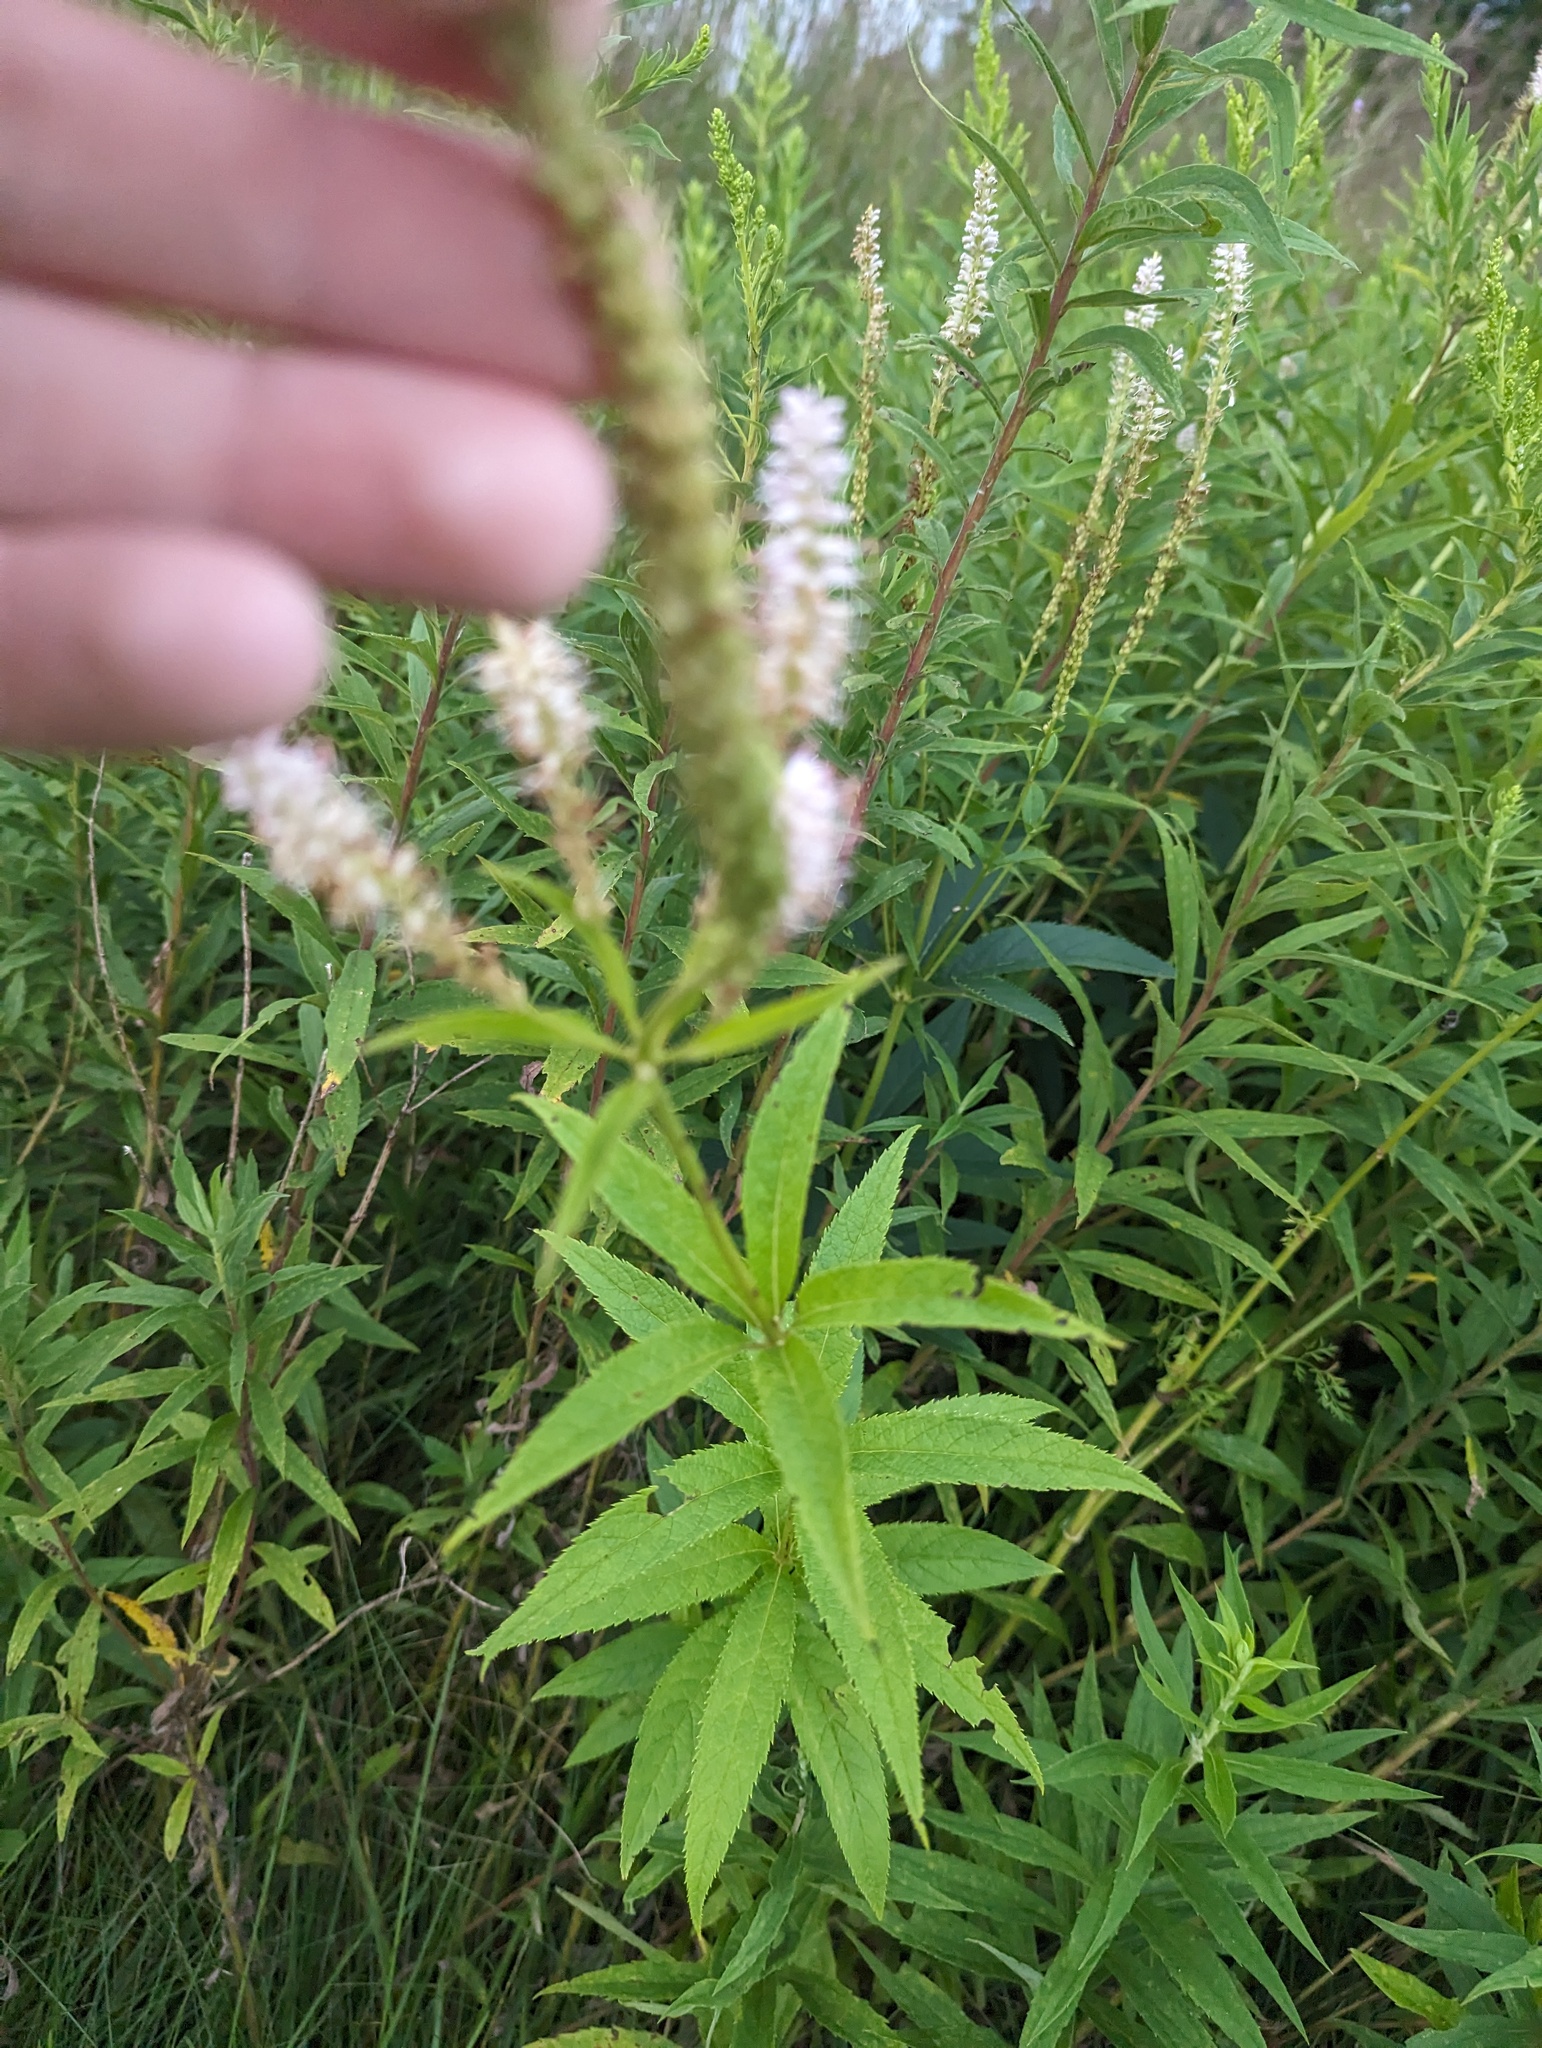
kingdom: Plantae
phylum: Tracheophyta
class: Magnoliopsida
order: Lamiales
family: Plantaginaceae
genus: Veronicastrum
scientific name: Veronicastrum virginicum
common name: Blackroot
